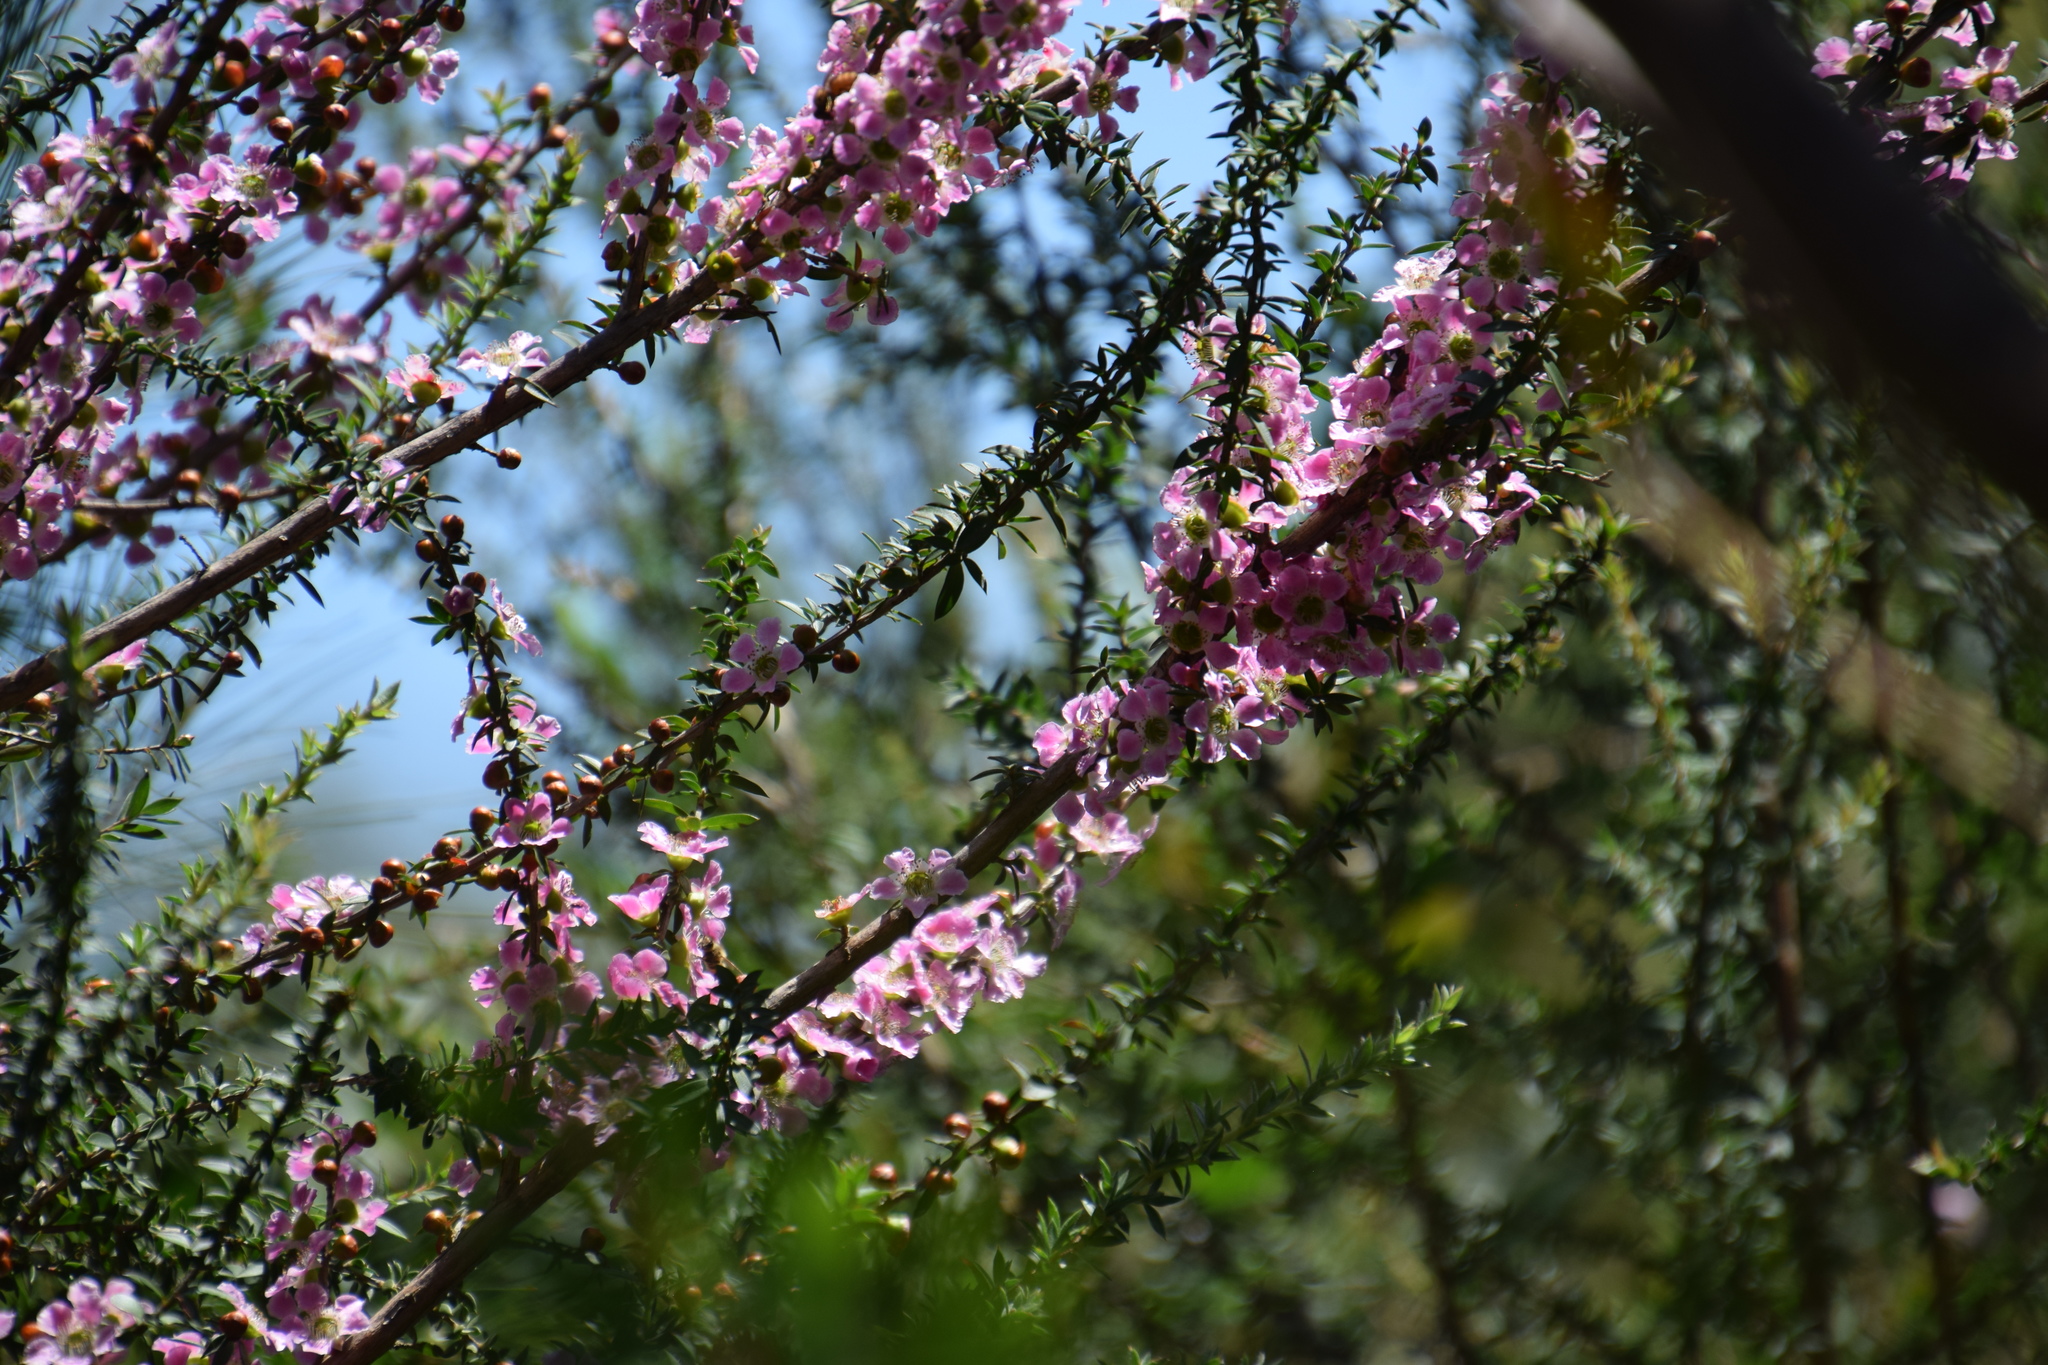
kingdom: Plantae
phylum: Tracheophyta
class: Magnoliopsida
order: Myrtales
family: Myrtaceae
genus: Leptospermum
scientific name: Leptospermum squarrosum
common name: Peach-blossom teatree
